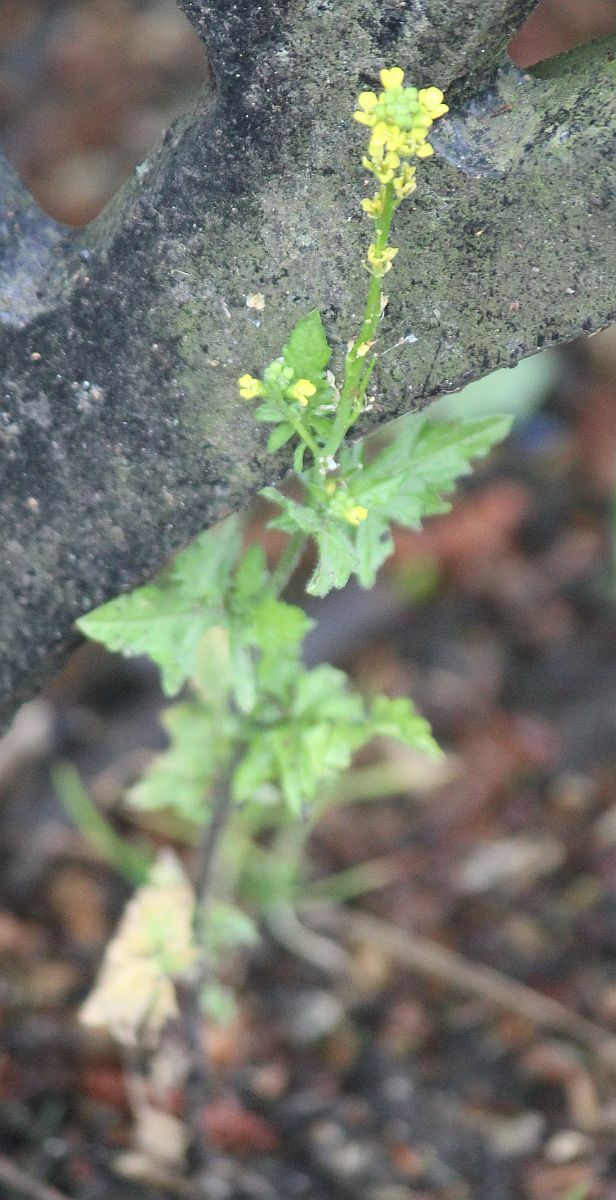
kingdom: Plantae
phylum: Tracheophyta
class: Magnoliopsida
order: Brassicales
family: Brassicaceae
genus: Sisymbrium
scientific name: Sisymbrium officinale
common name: Hedge mustard
